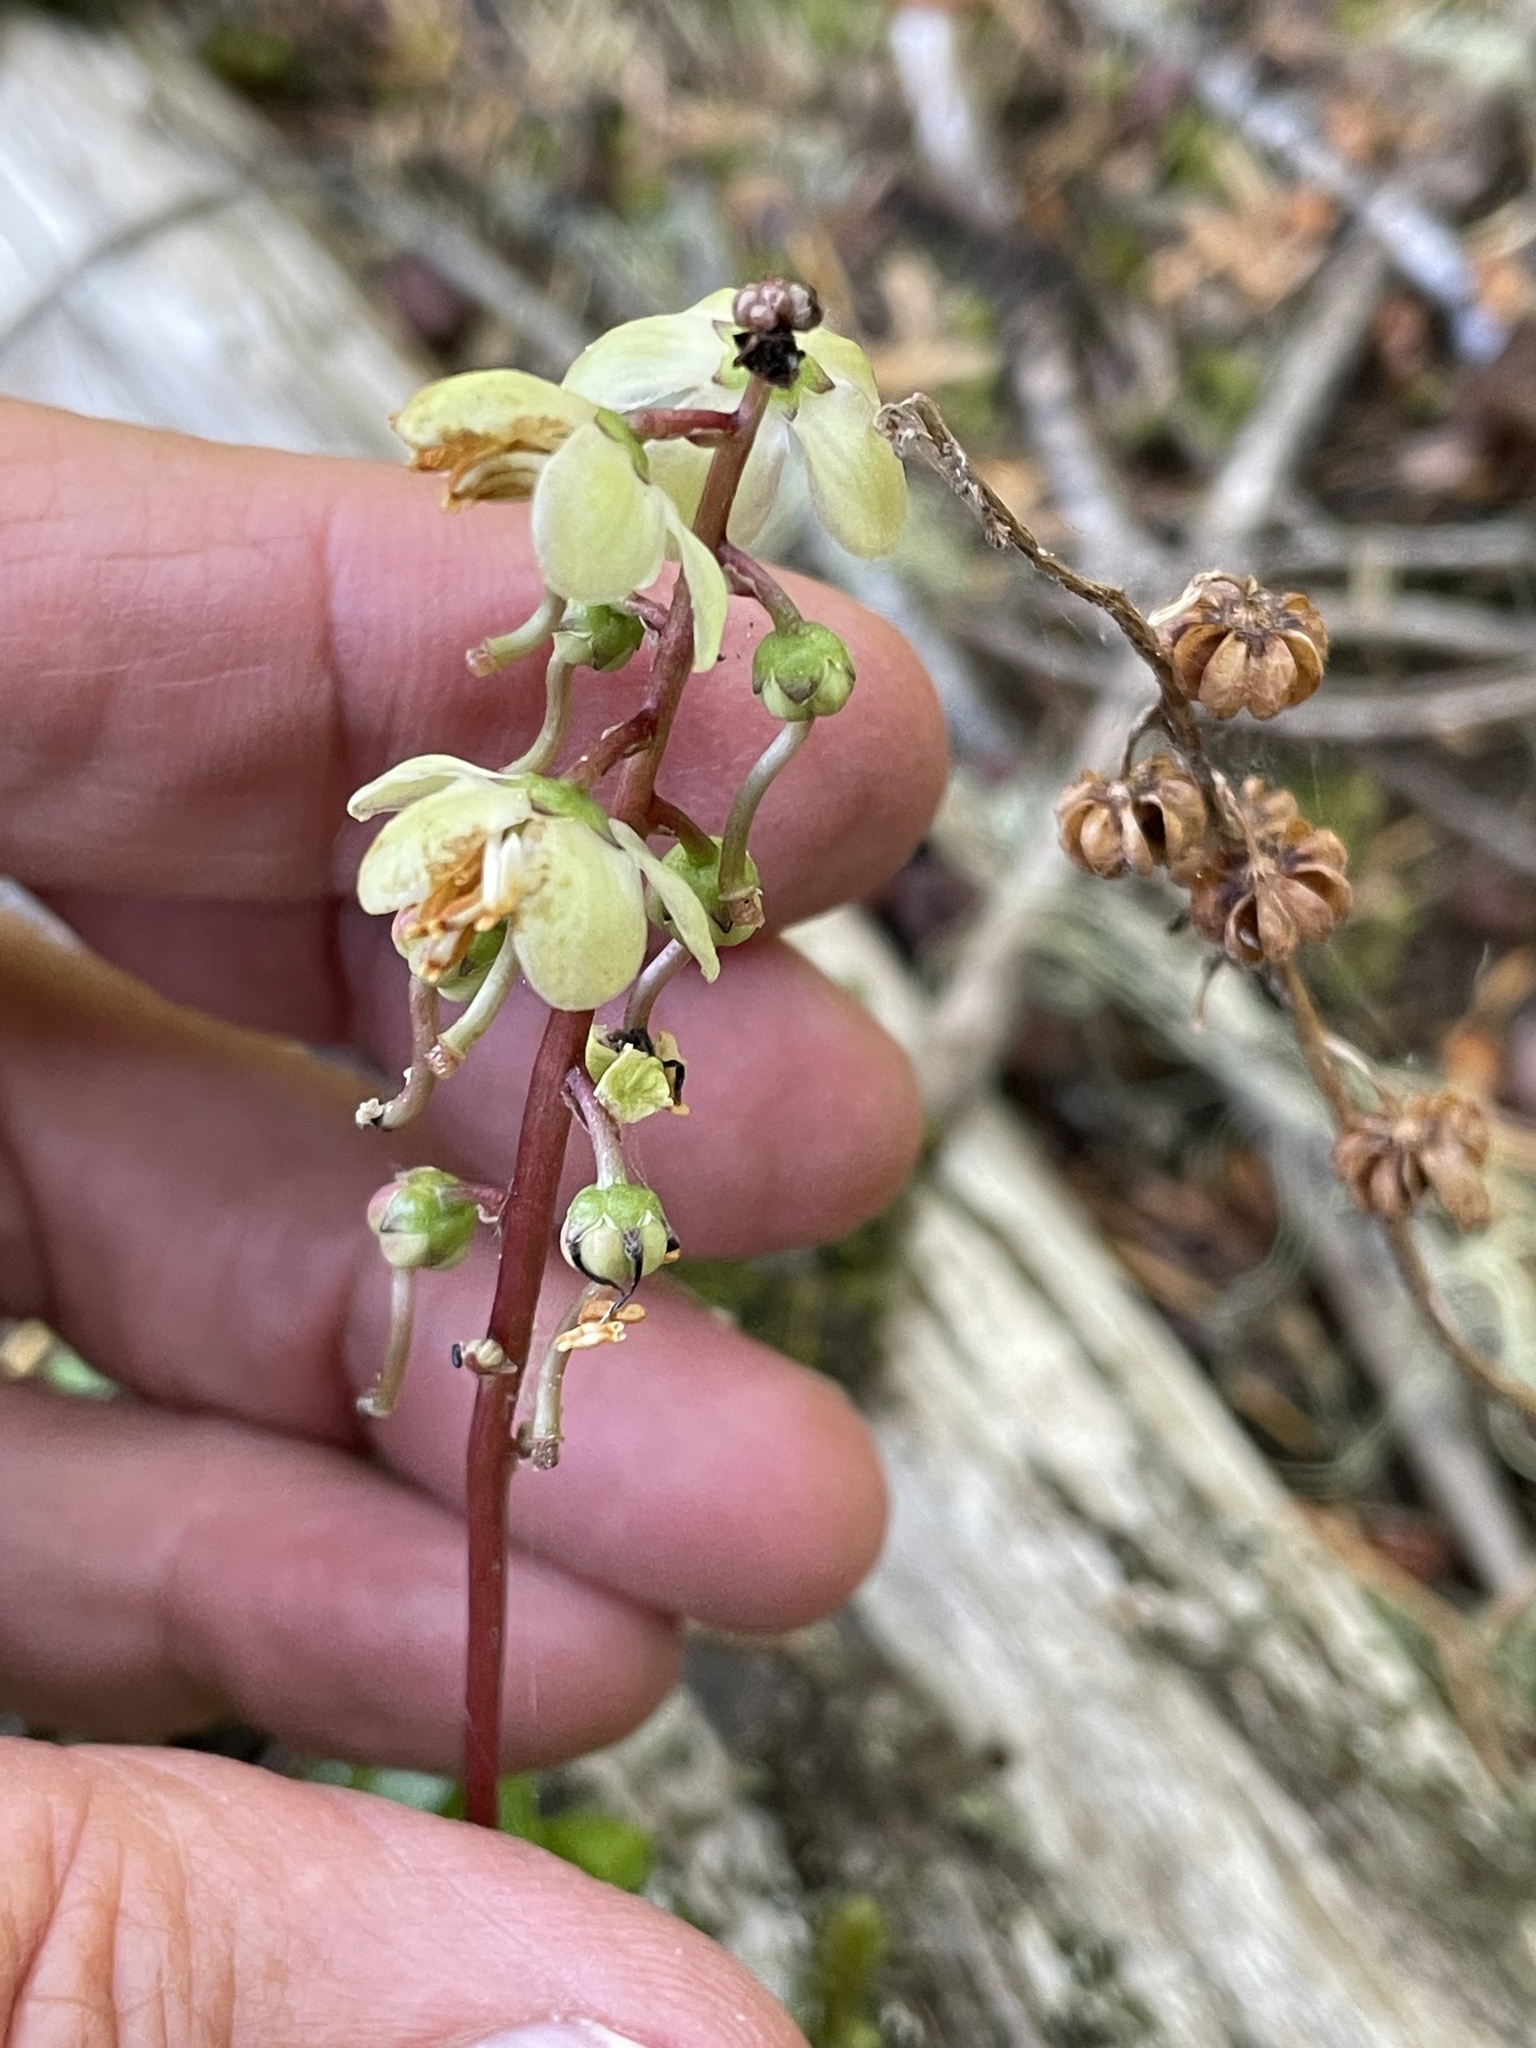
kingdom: Plantae
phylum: Tracheophyta
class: Magnoliopsida
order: Ericales
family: Ericaceae
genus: Pyrola
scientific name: Pyrola picta
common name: White-vein wintergreen
